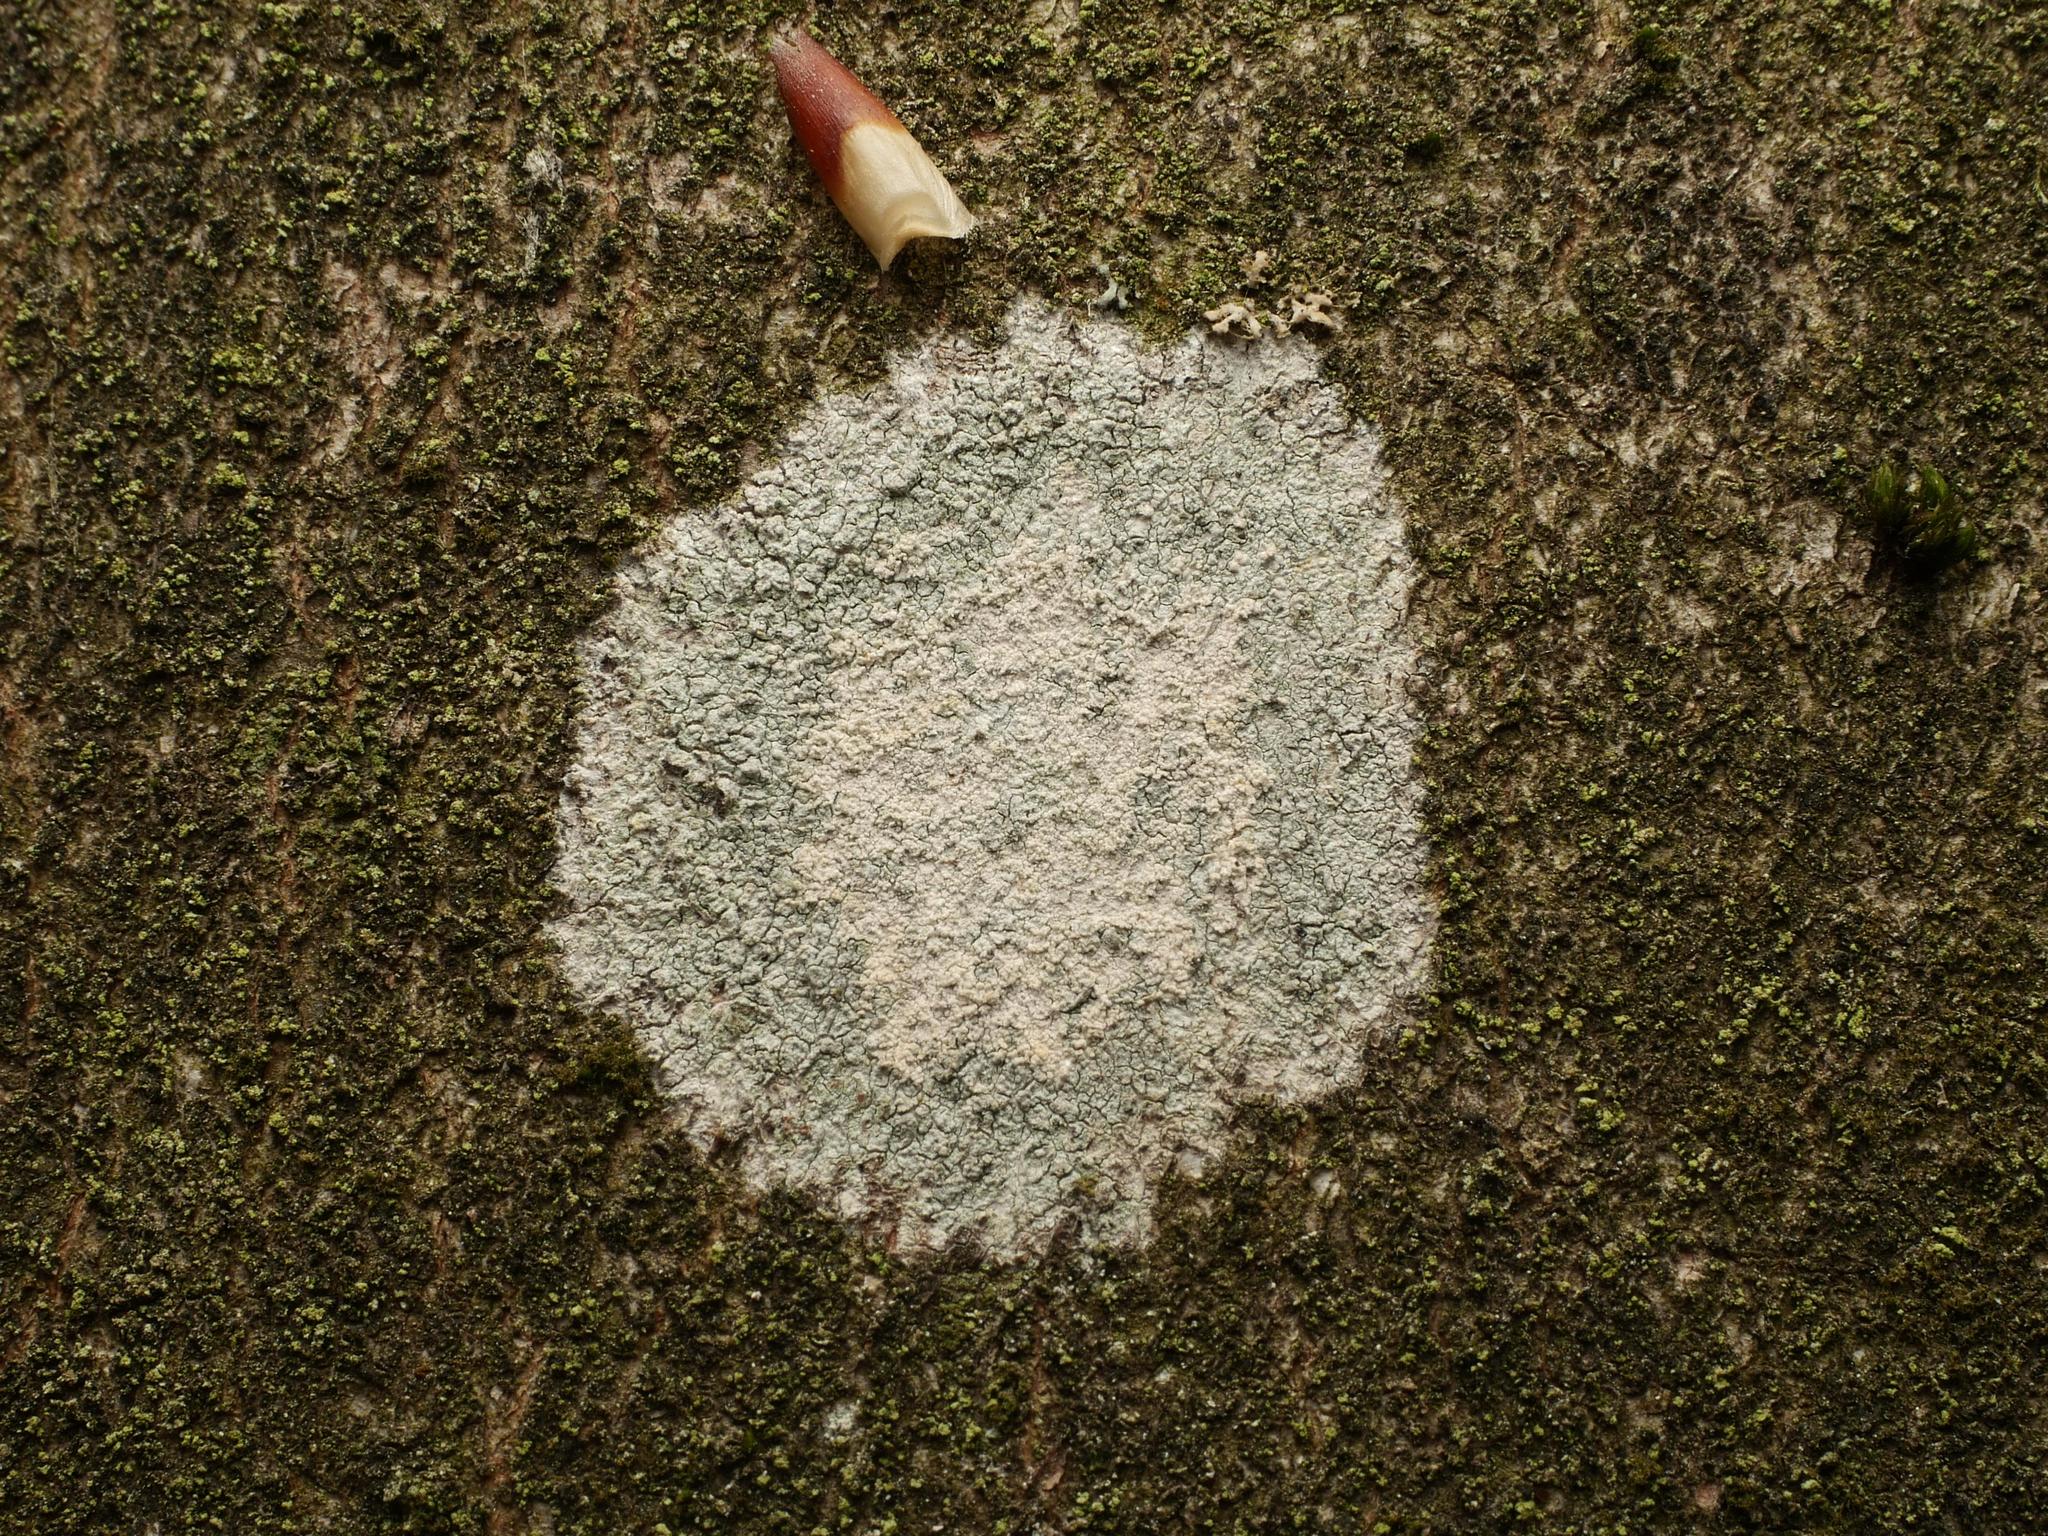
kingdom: Fungi
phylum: Ascomycota
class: Lecanoromycetes
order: Ostropales
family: Phlyctidaceae
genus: Phlyctis
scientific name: Phlyctis argena
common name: Whitewash lichen
